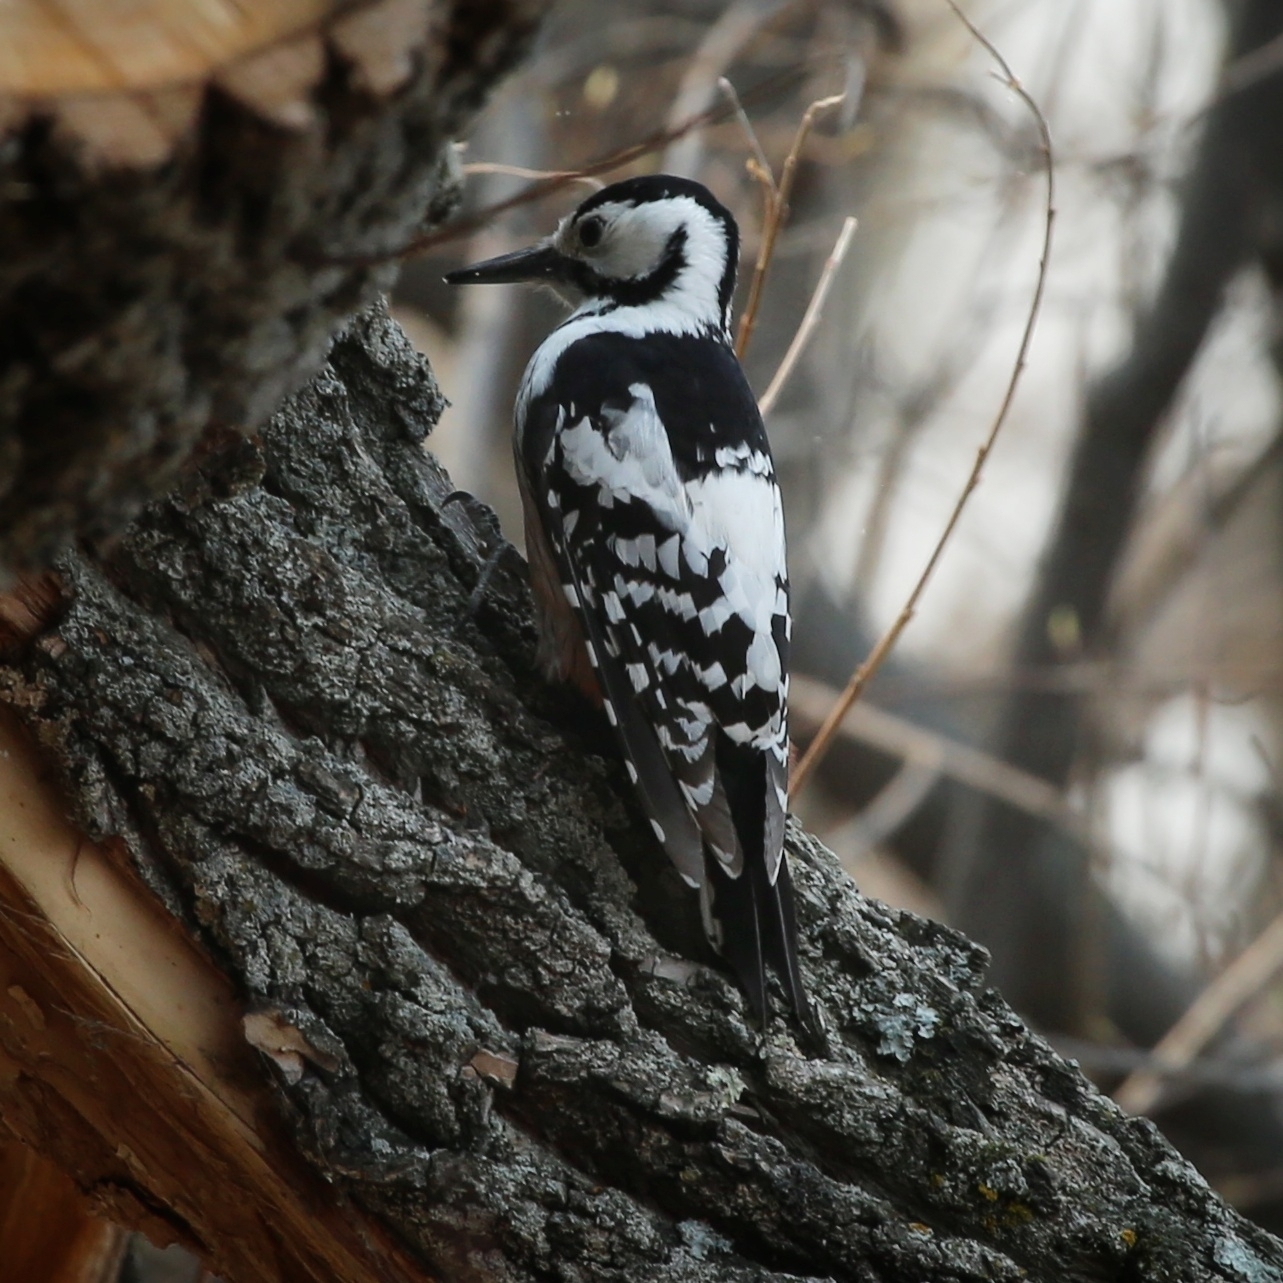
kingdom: Animalia
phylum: Chordata
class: Aves
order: Piciformes
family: Picidae
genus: Dendrocopos
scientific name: Dendrocopos leucotos
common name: White-backed woodpecker
